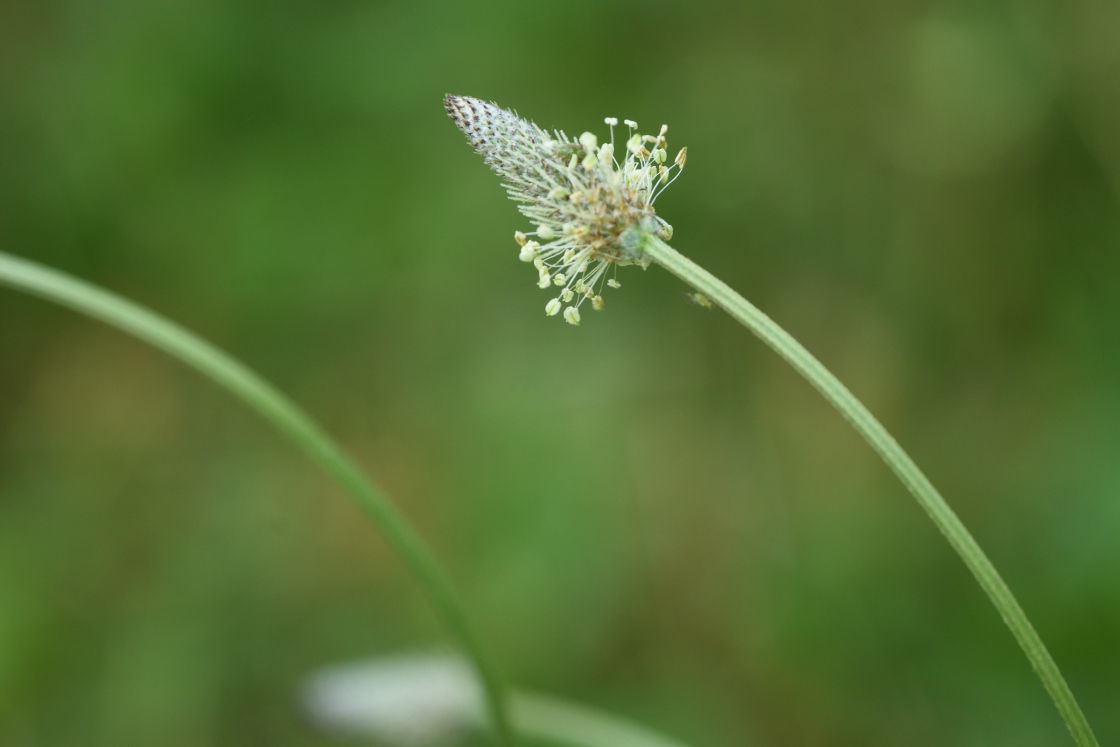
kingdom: Plantae
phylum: Tracheophyta
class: Magnoliopsida
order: Lamiales
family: Plantaginaceae
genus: Plantago
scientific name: Plantago lanceolata
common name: Ribwort plantain
